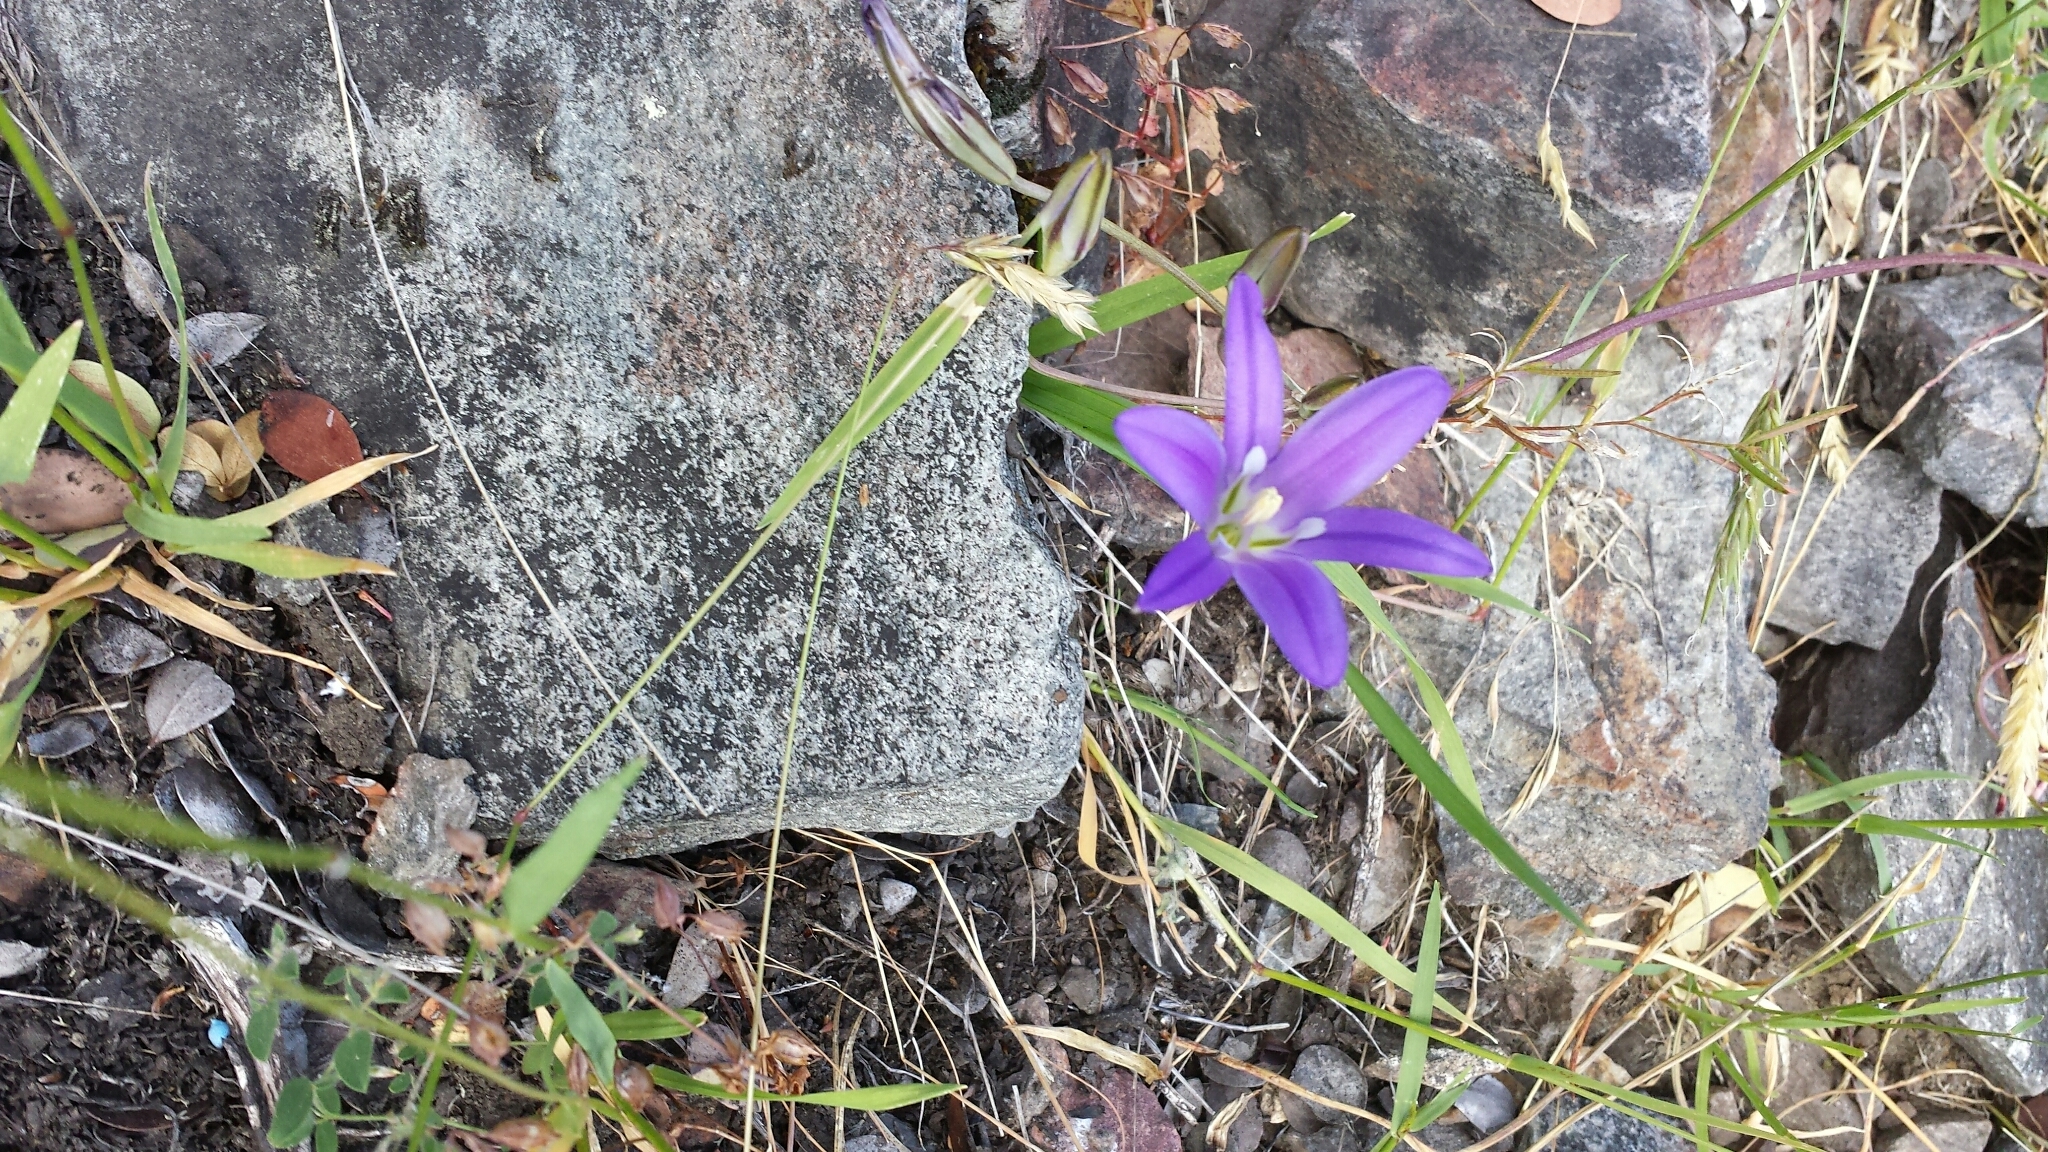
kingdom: Plantae
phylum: Tracheophyta
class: Liliopsida
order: Asparagales
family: Asparagaceae
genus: Brodiaea
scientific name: Brodiaea elegans
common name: Elegant cluster-lily
